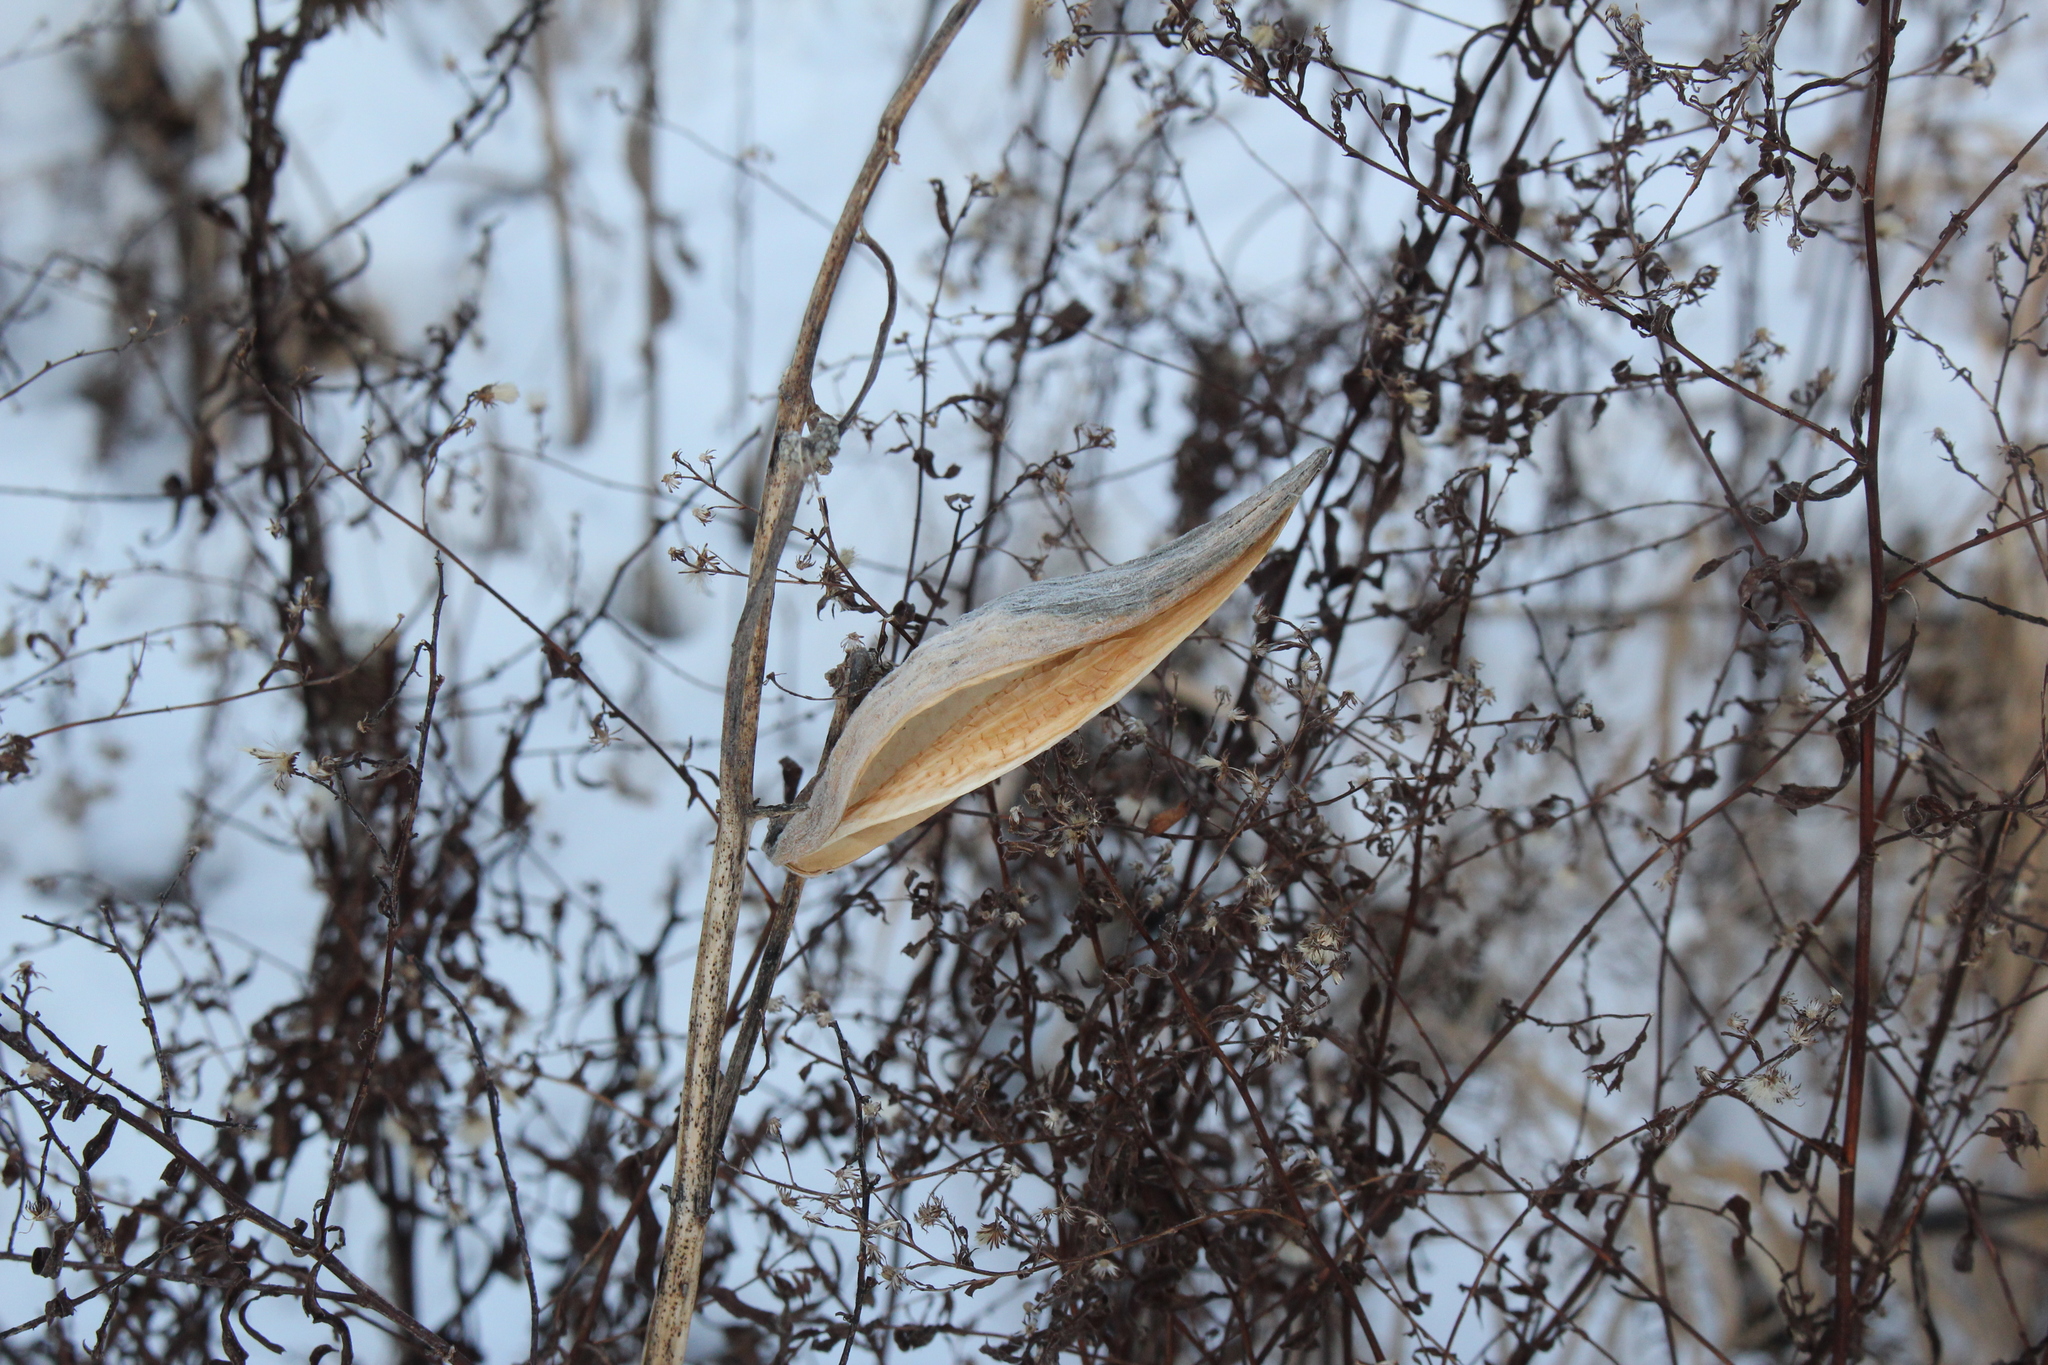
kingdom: Plantae
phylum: Tracheophyta
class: Magnoliopsida
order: Gentianales
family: Apocynaceae
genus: Asclepias
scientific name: Asclepias syriaca
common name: Common milkweed
